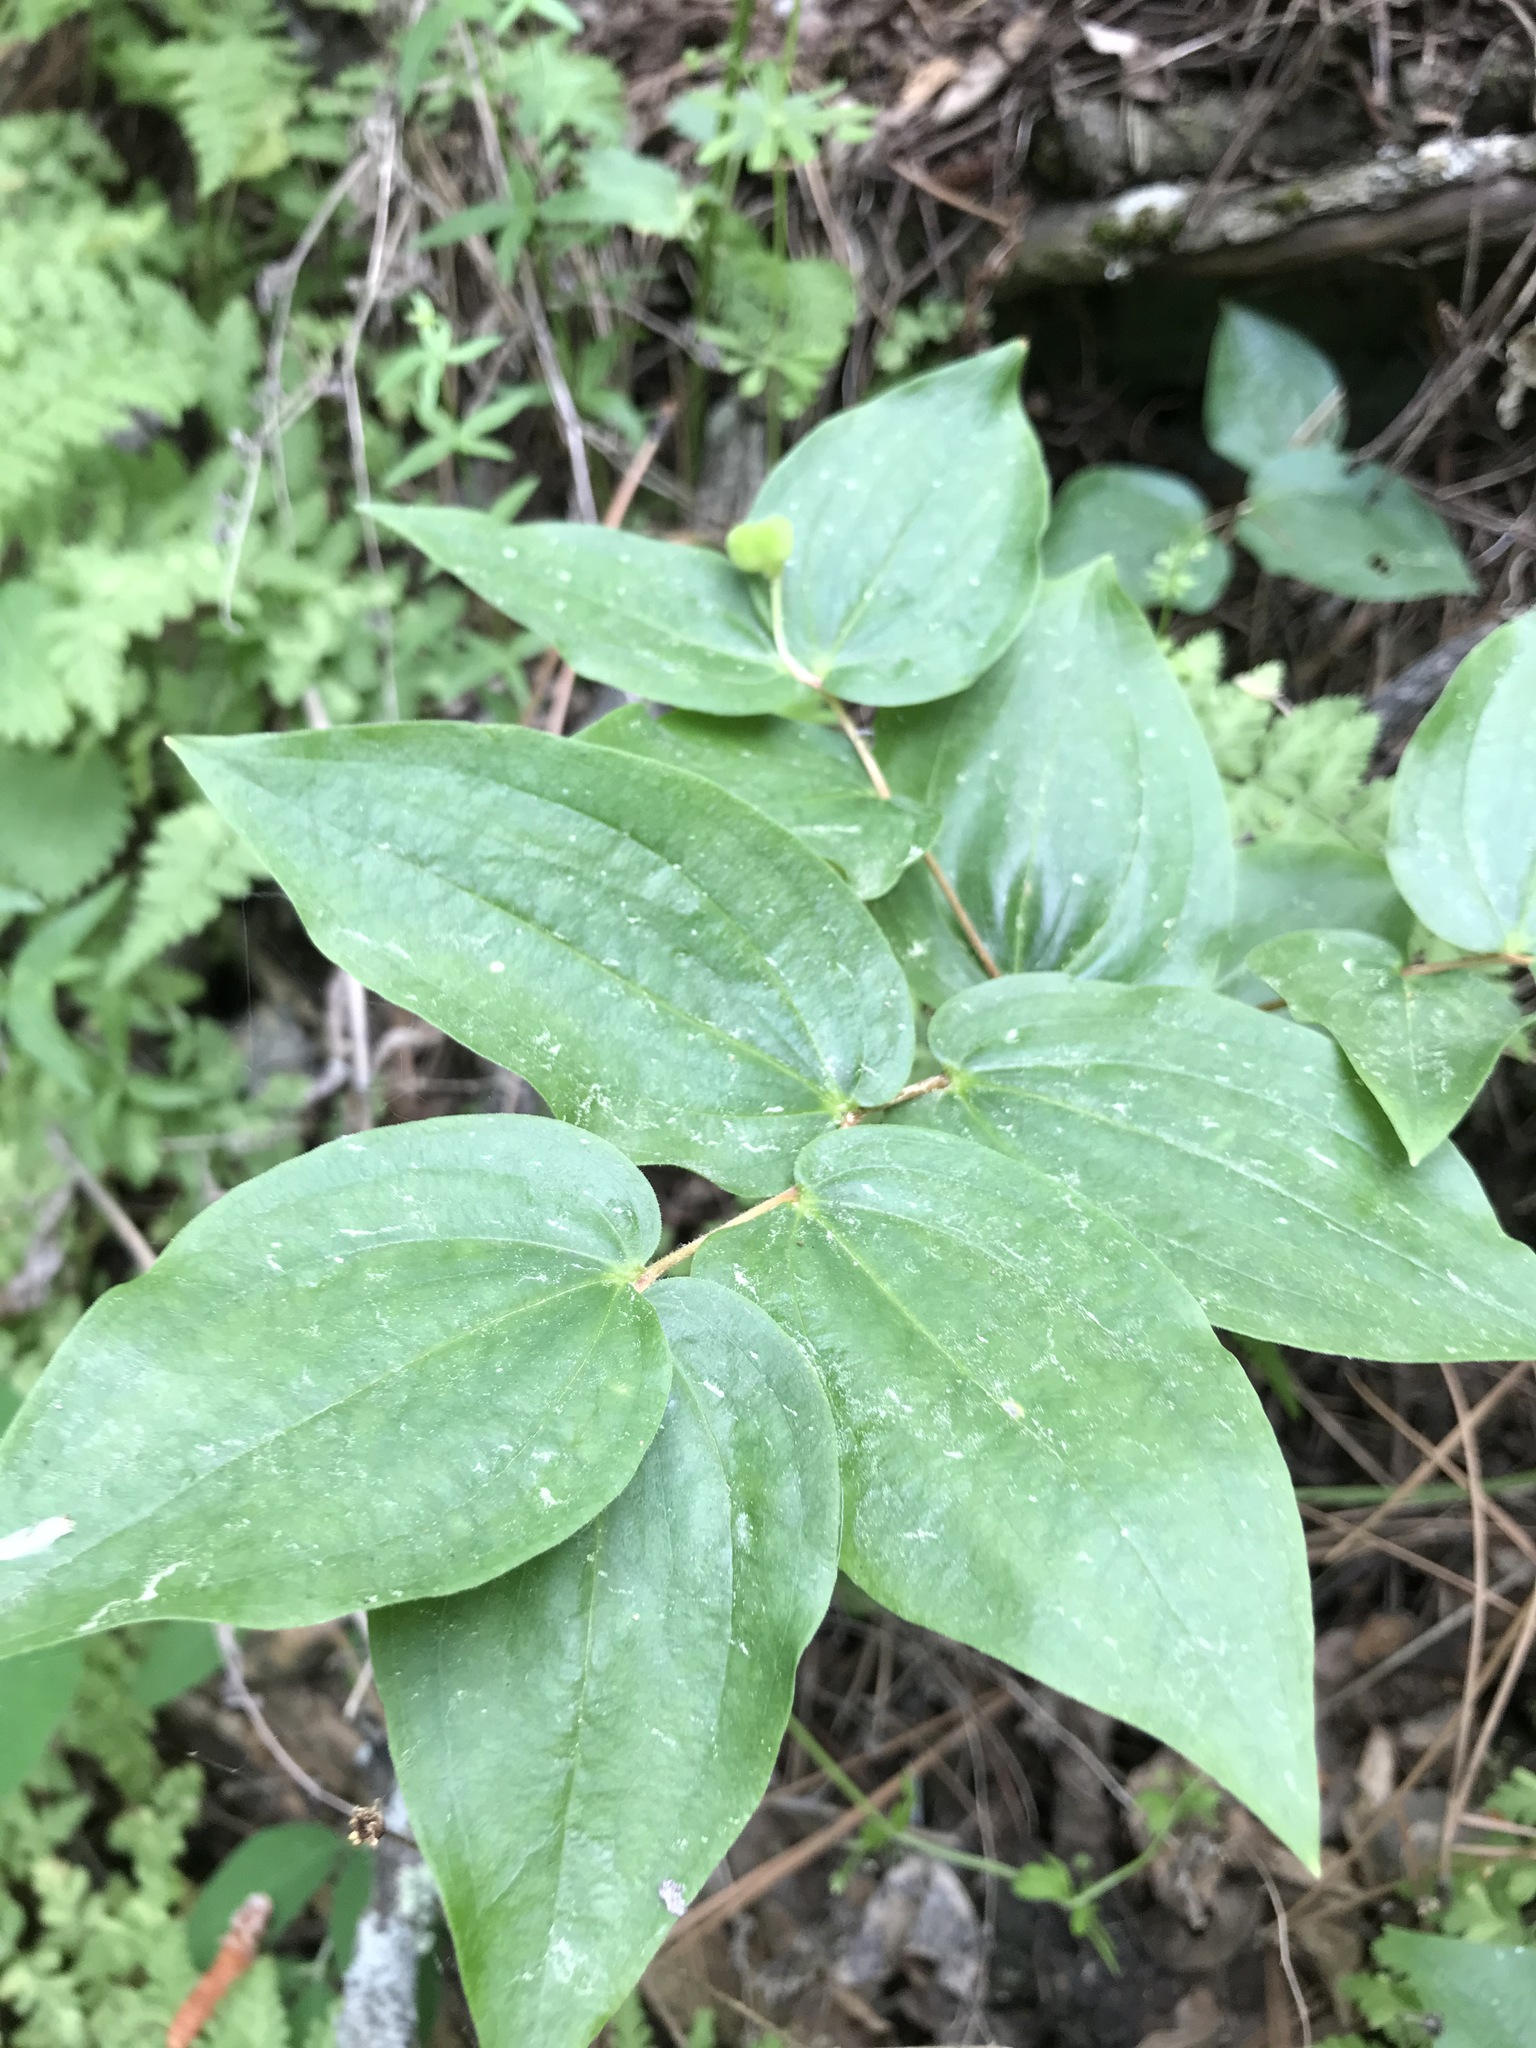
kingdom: Plantae
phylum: Tracheophyta
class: Liliopsida
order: Liliales
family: Liliaceae
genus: Prosartes
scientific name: Prosartes trachycarpa
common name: Rough-fruit fairy-bells
